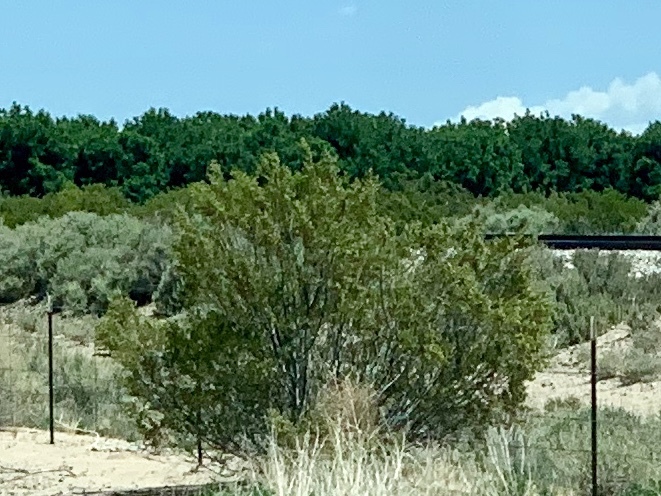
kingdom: Plantae
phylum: Tracheophyta
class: Magnoliopsida
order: Zygophyllales
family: Zygophyllaceae
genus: Larrea
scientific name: Larrea tridentata
